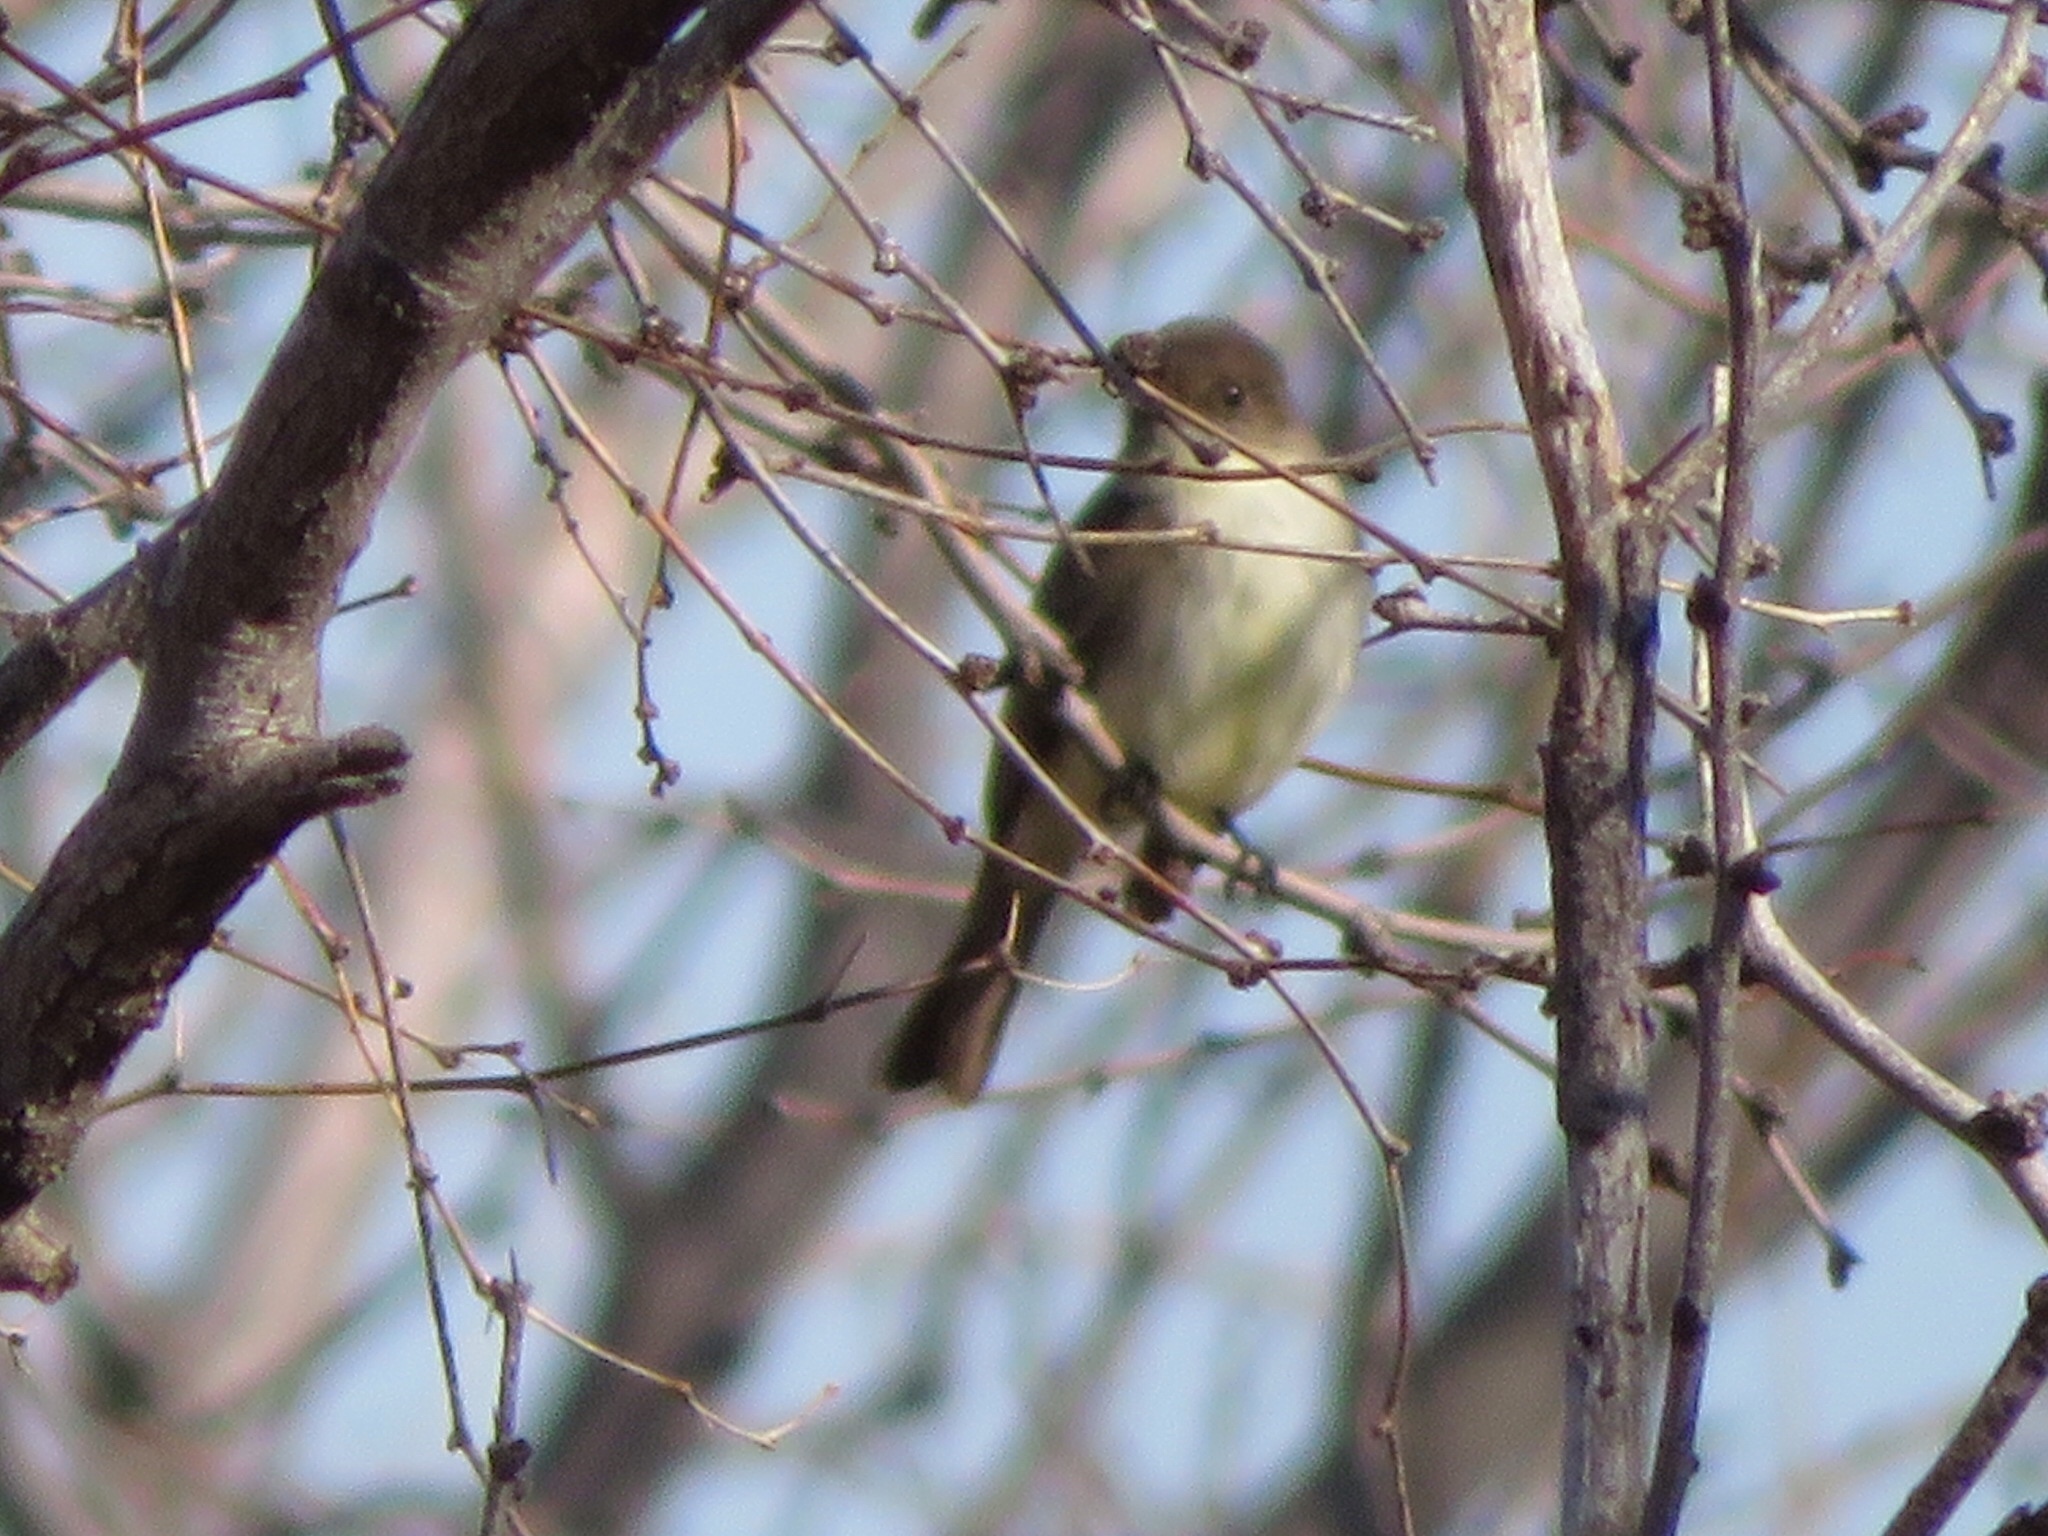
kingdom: Animalia
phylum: Chordata
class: Aves
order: Passeriformes
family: Tyrannidae
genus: Sayornis
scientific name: Sayornis phoebe
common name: Eastern phoebe
